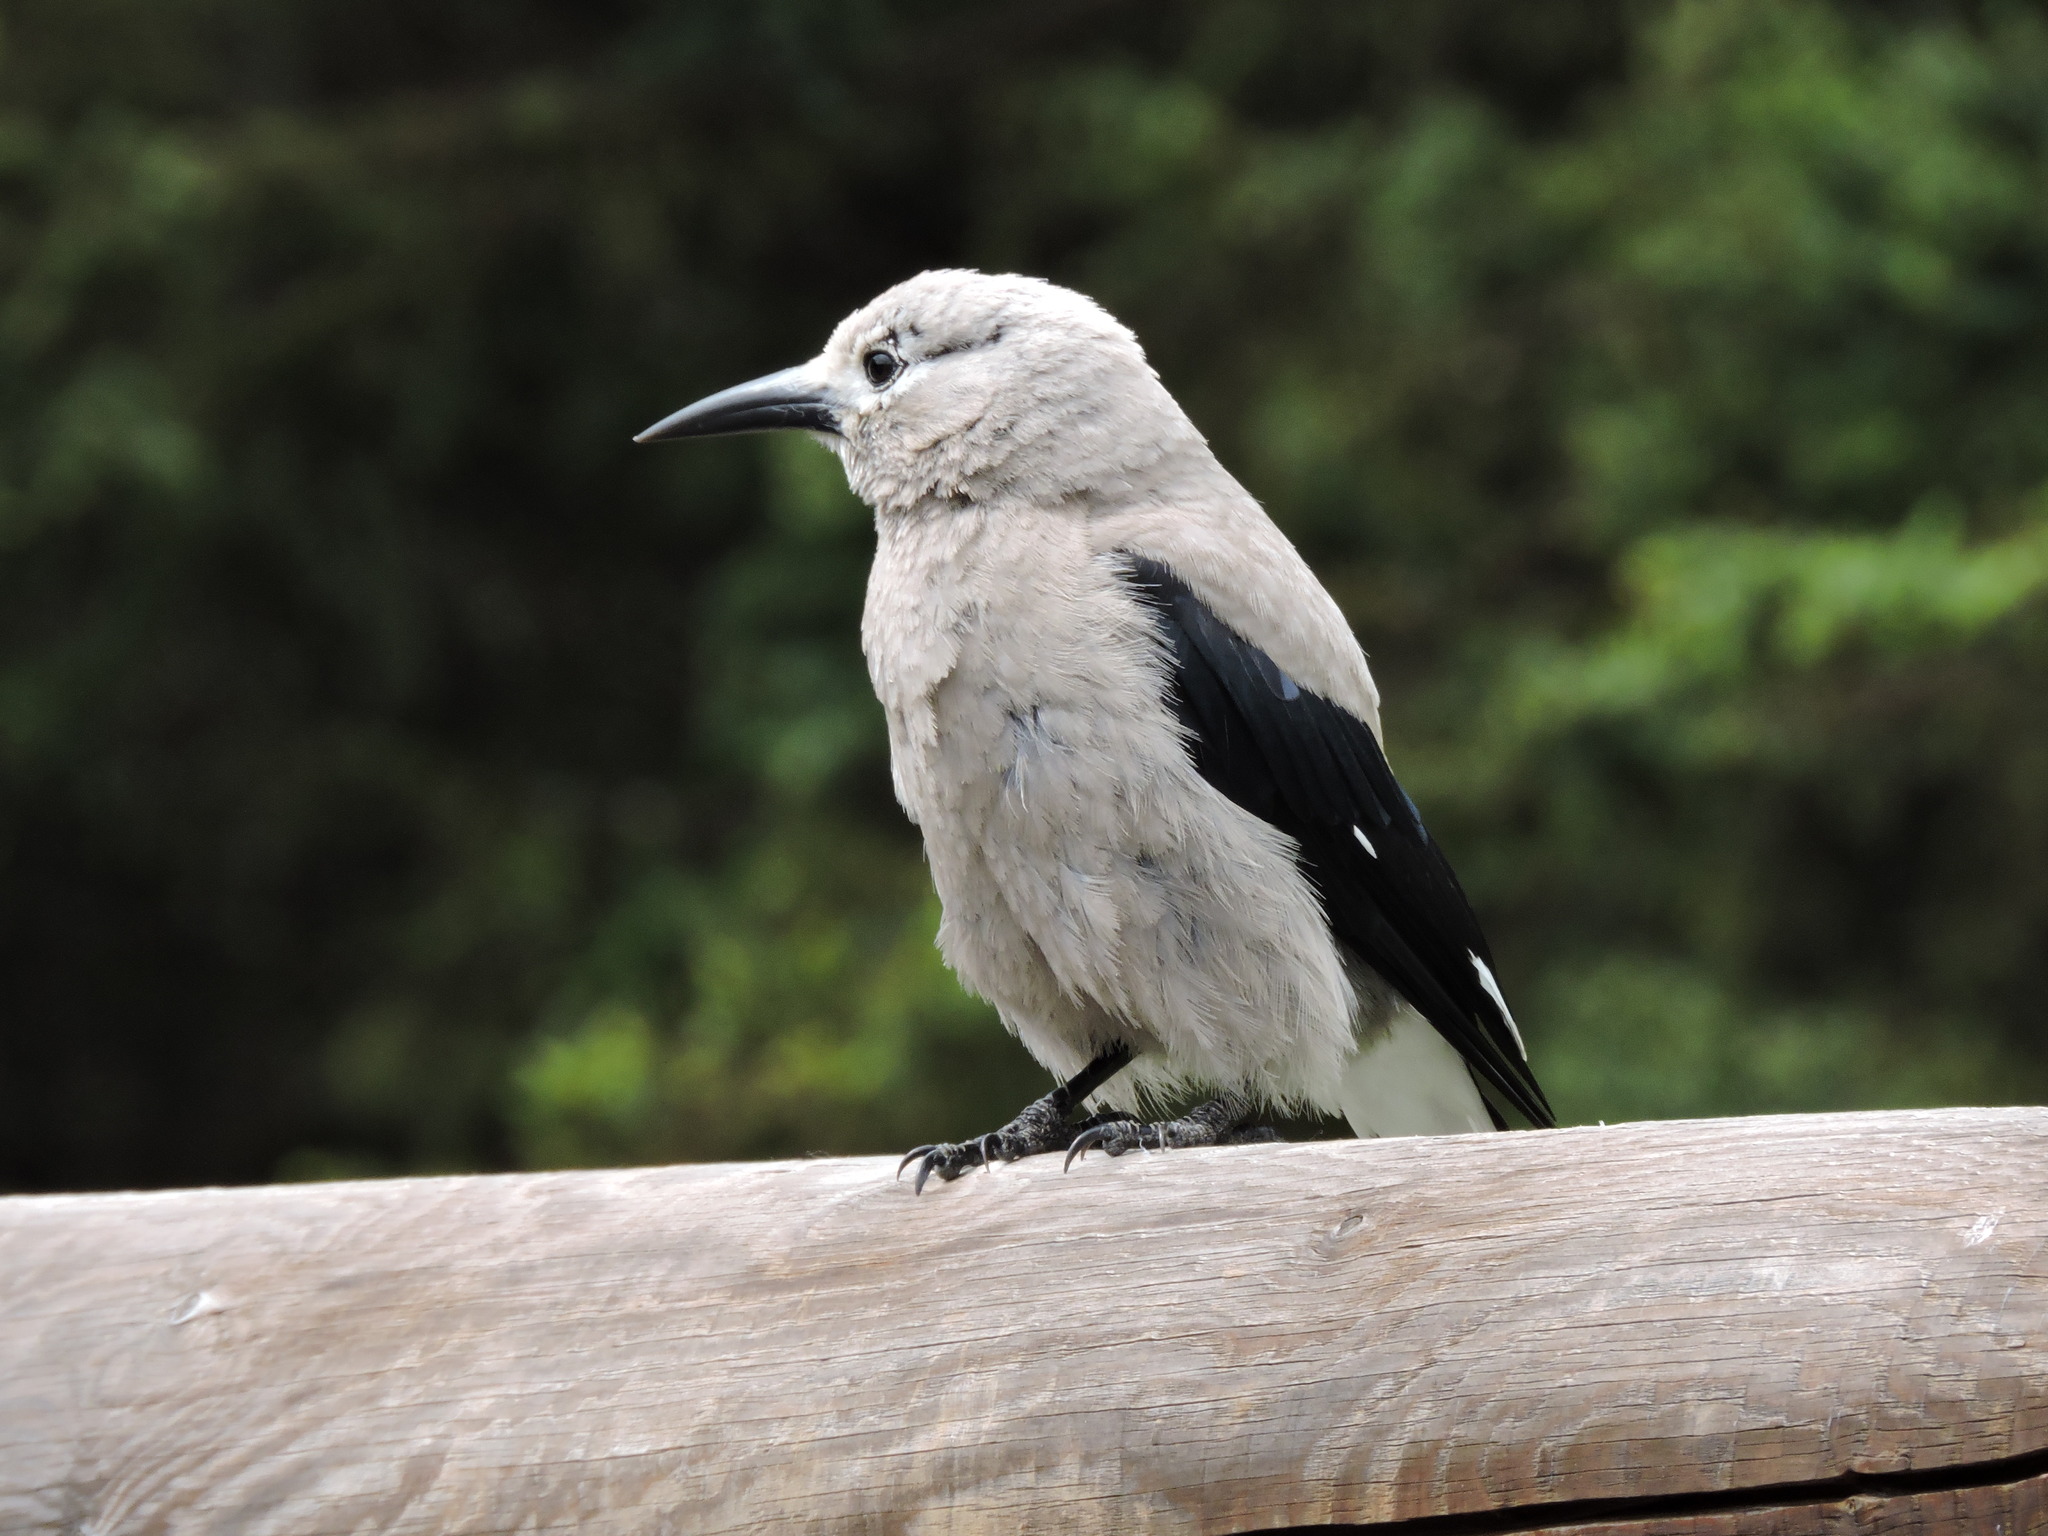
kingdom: Animalia
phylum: Chordata
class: Aves
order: Passeriformes
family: Corvidae
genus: Nucifraga
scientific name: Nucifraga columbiana
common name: Clark's nutcracker
